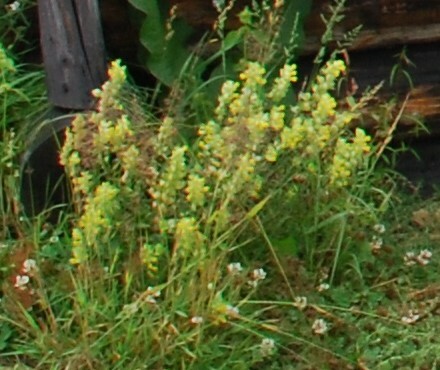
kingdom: Plantae
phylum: Tracheophyta
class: Magnoliopsida
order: Lamiales
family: Orobanchaceae
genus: Rhinanthus
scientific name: Rhinanthus serotinus
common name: Late-flowering yellow rattle
